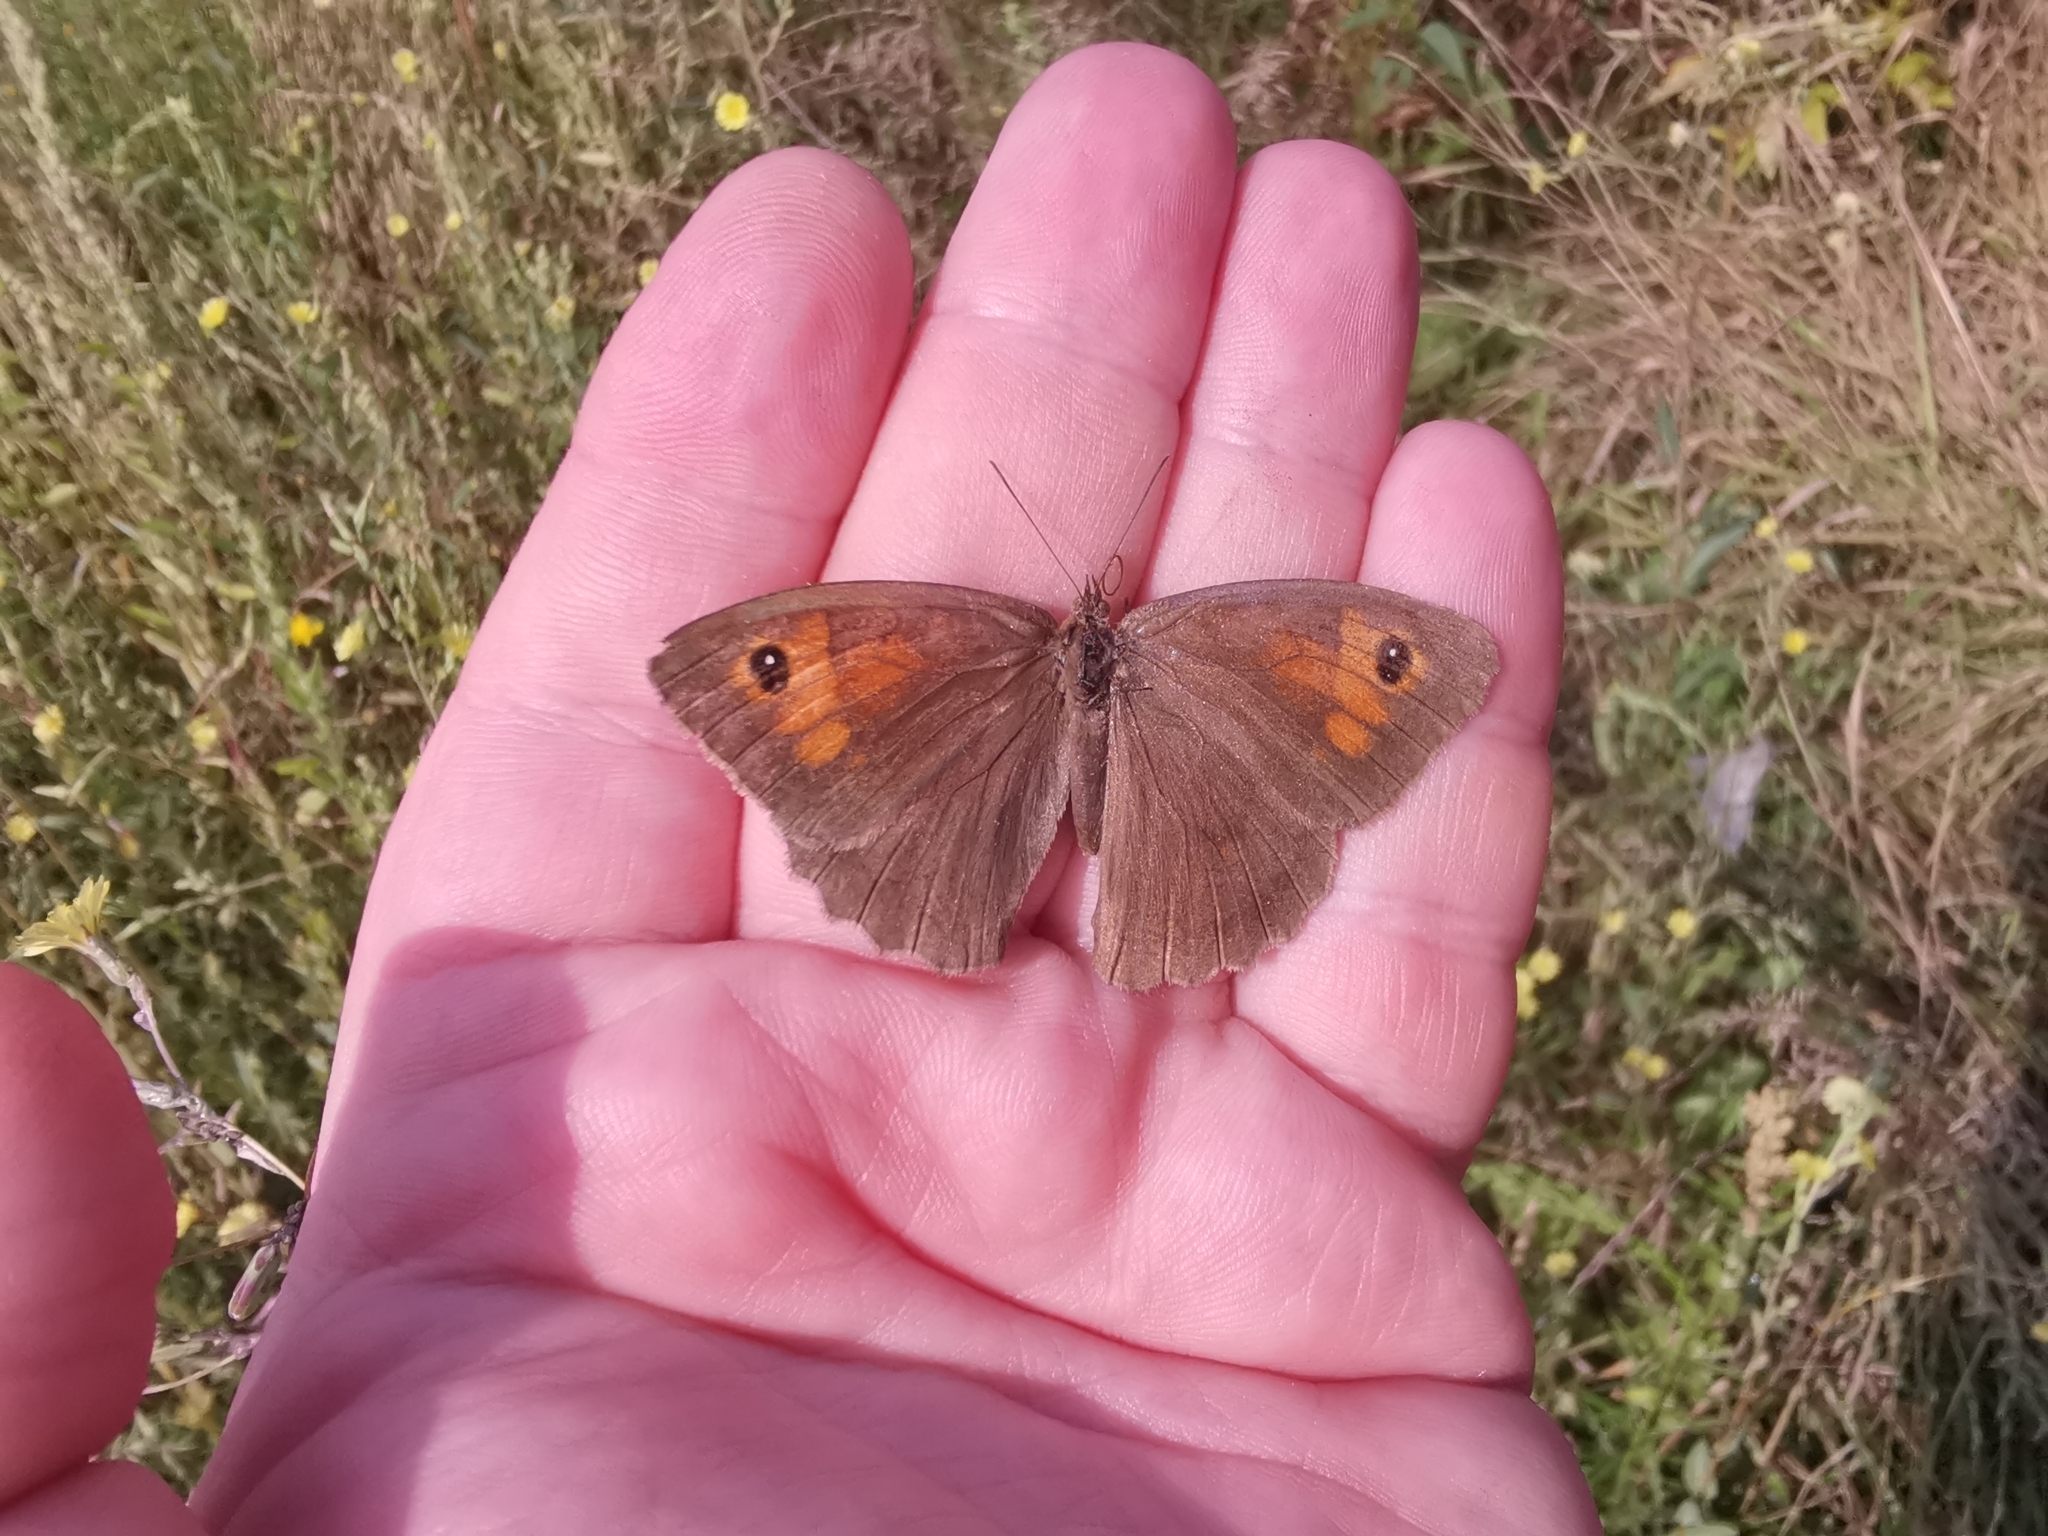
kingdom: Animalia
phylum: Arthropoda
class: Insecta
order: Lepidoptera
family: Nymphalidae
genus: Maniola
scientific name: Maniola jurtina
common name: Meadow brown
